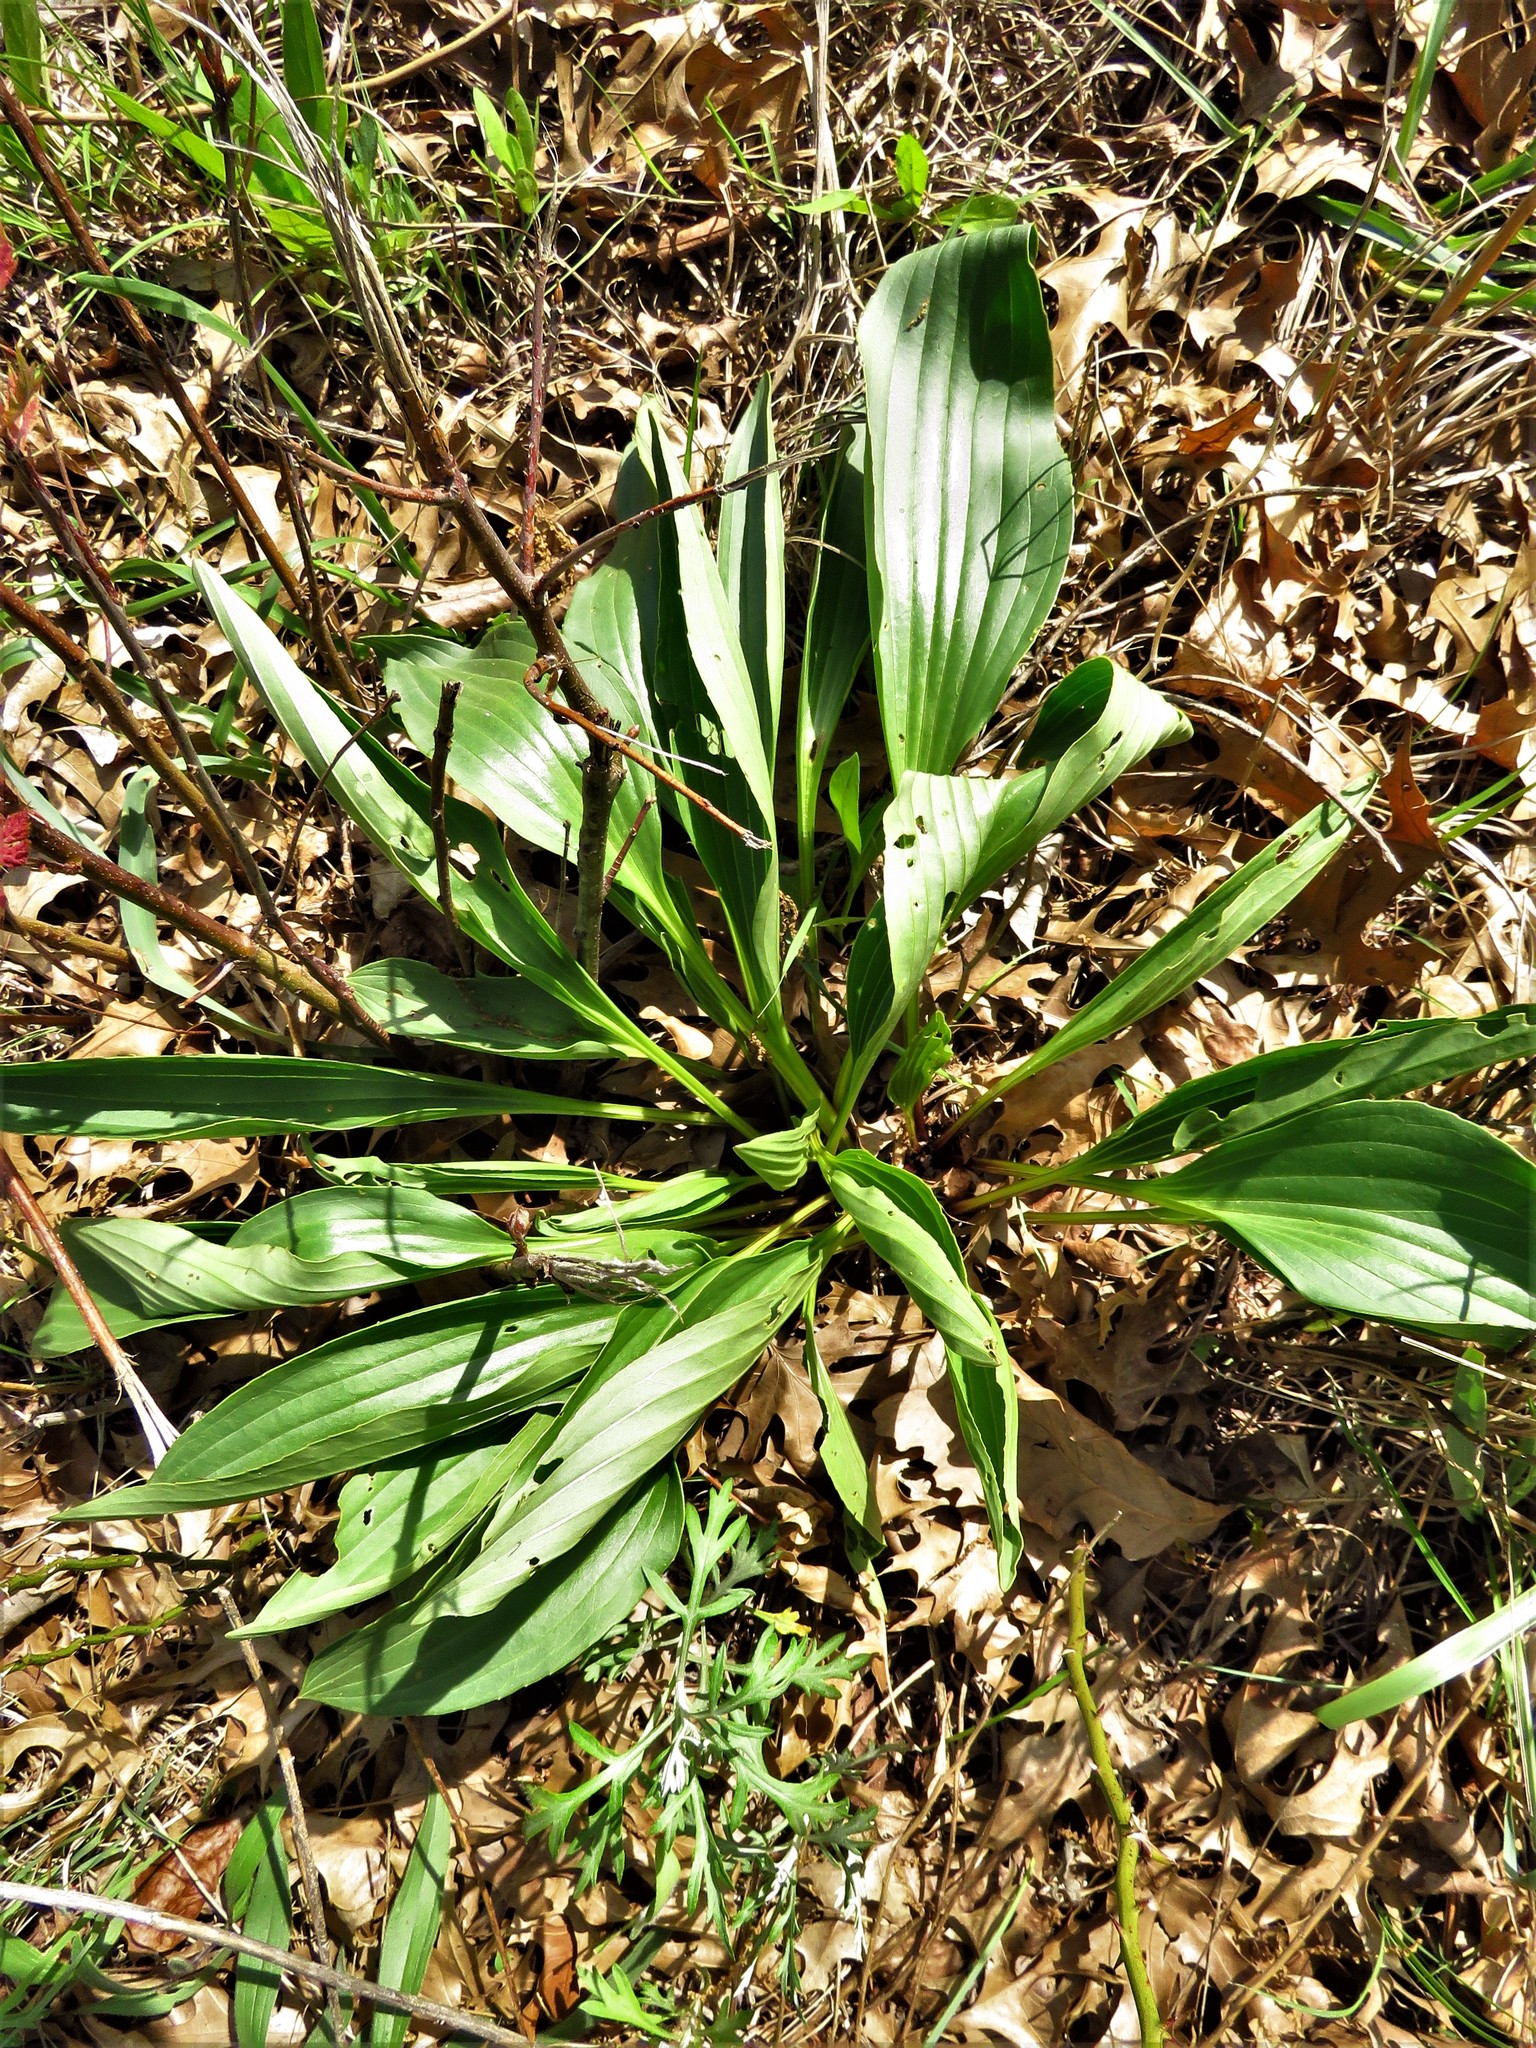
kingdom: Plantae
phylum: Tracheophyta
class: Magnoliopsida
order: Asterales
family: Asteraceae
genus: Arnoglossum
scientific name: Arnoglossum plantagineum
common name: Groove-stemmed indian-plantain
